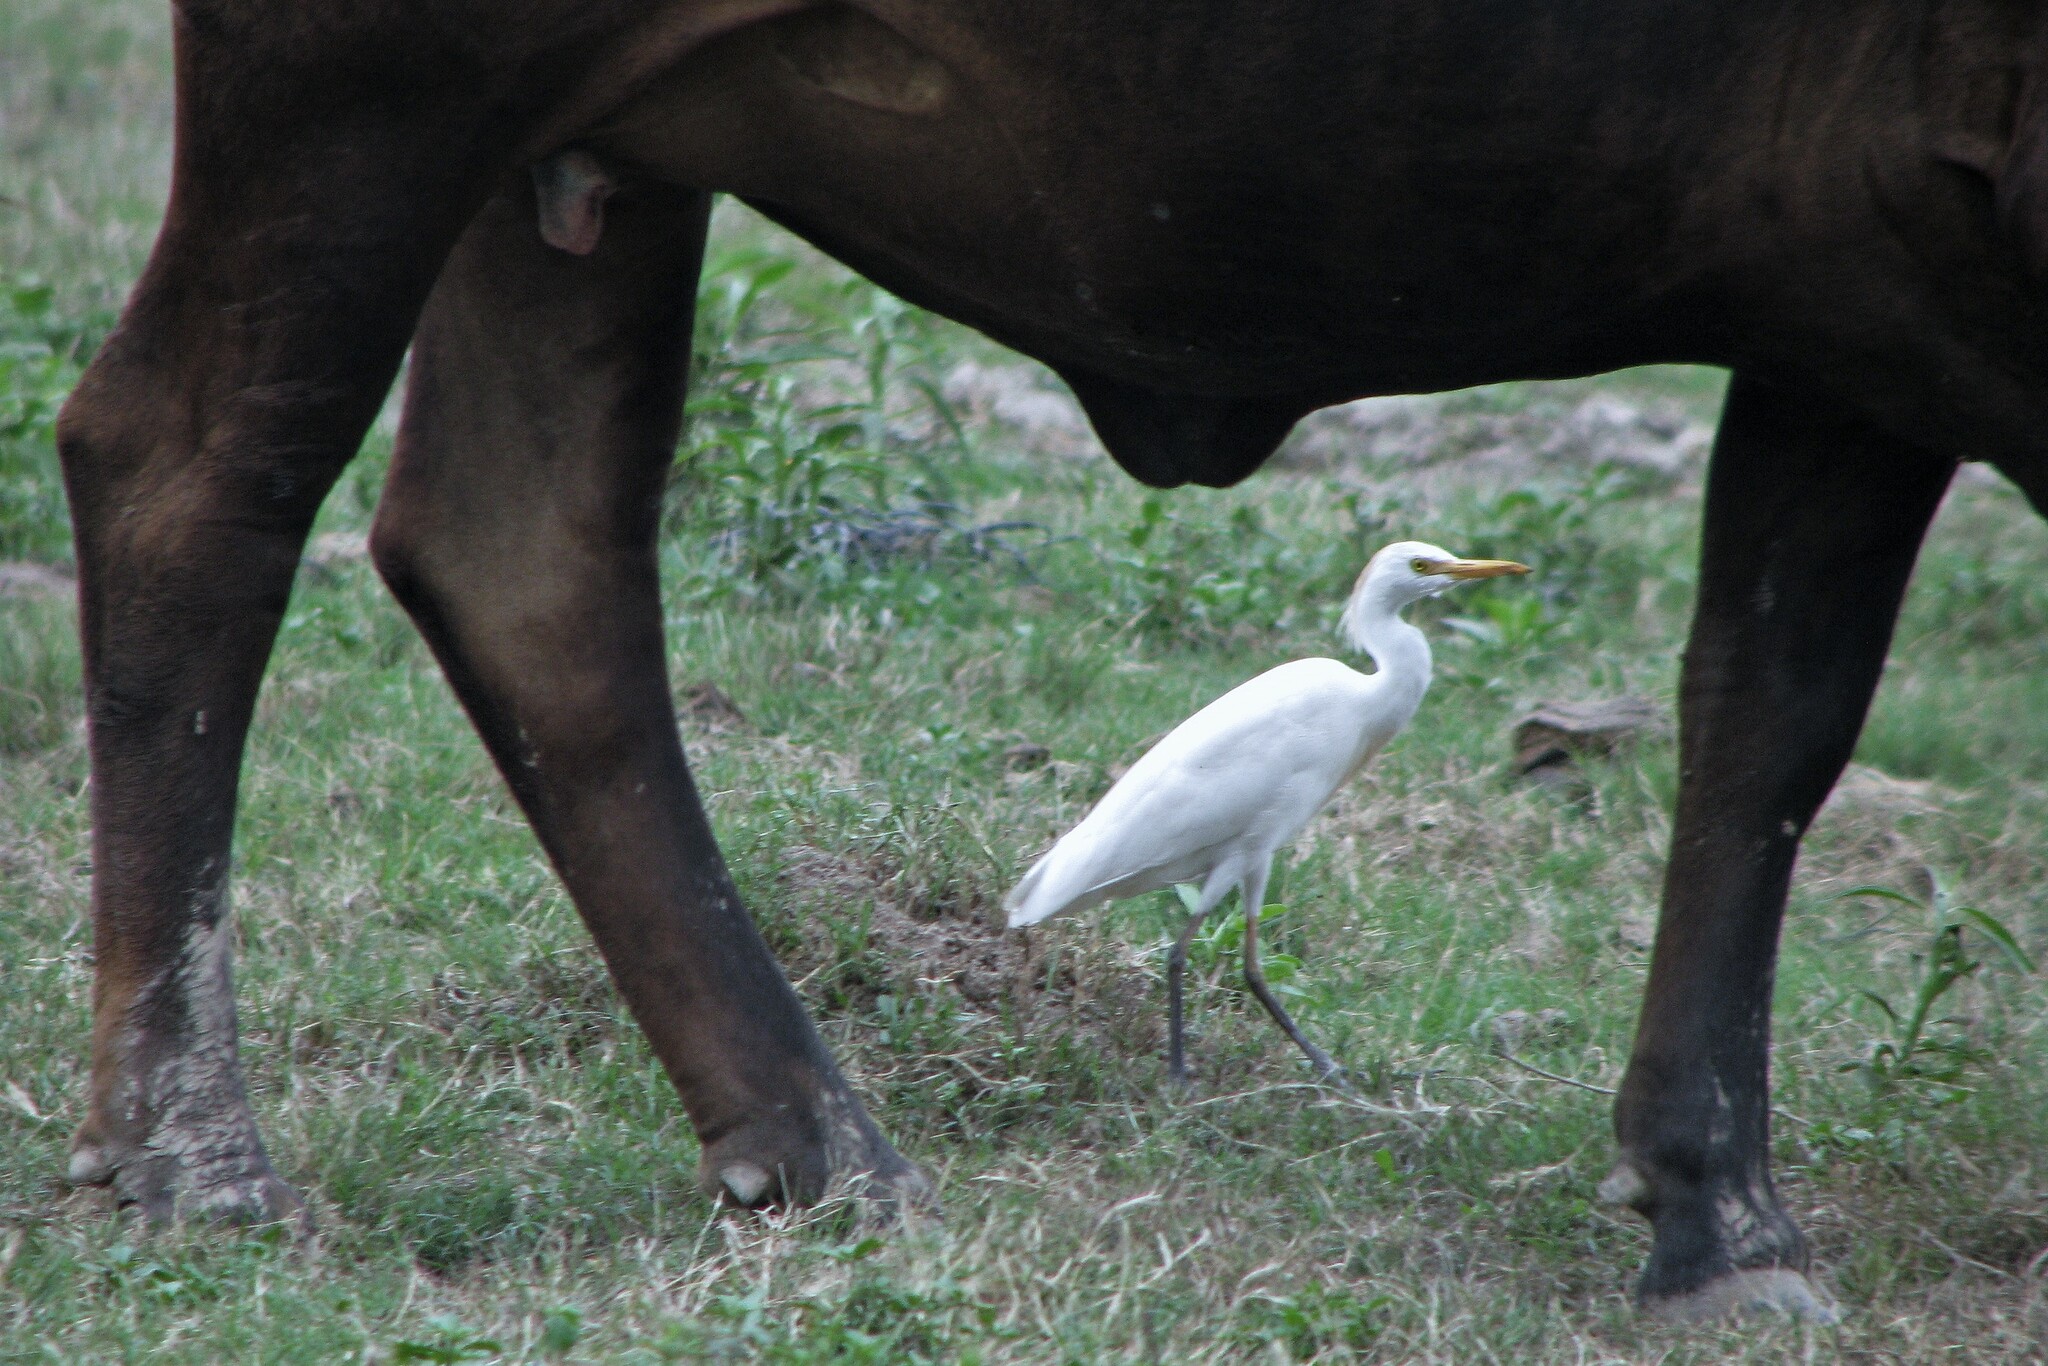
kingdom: Animalia
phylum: Chordata
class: Aves
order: Pelecaniformes
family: Ardeidae
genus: Bubulcus
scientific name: Bubulcus ibis
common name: Cattle egret
